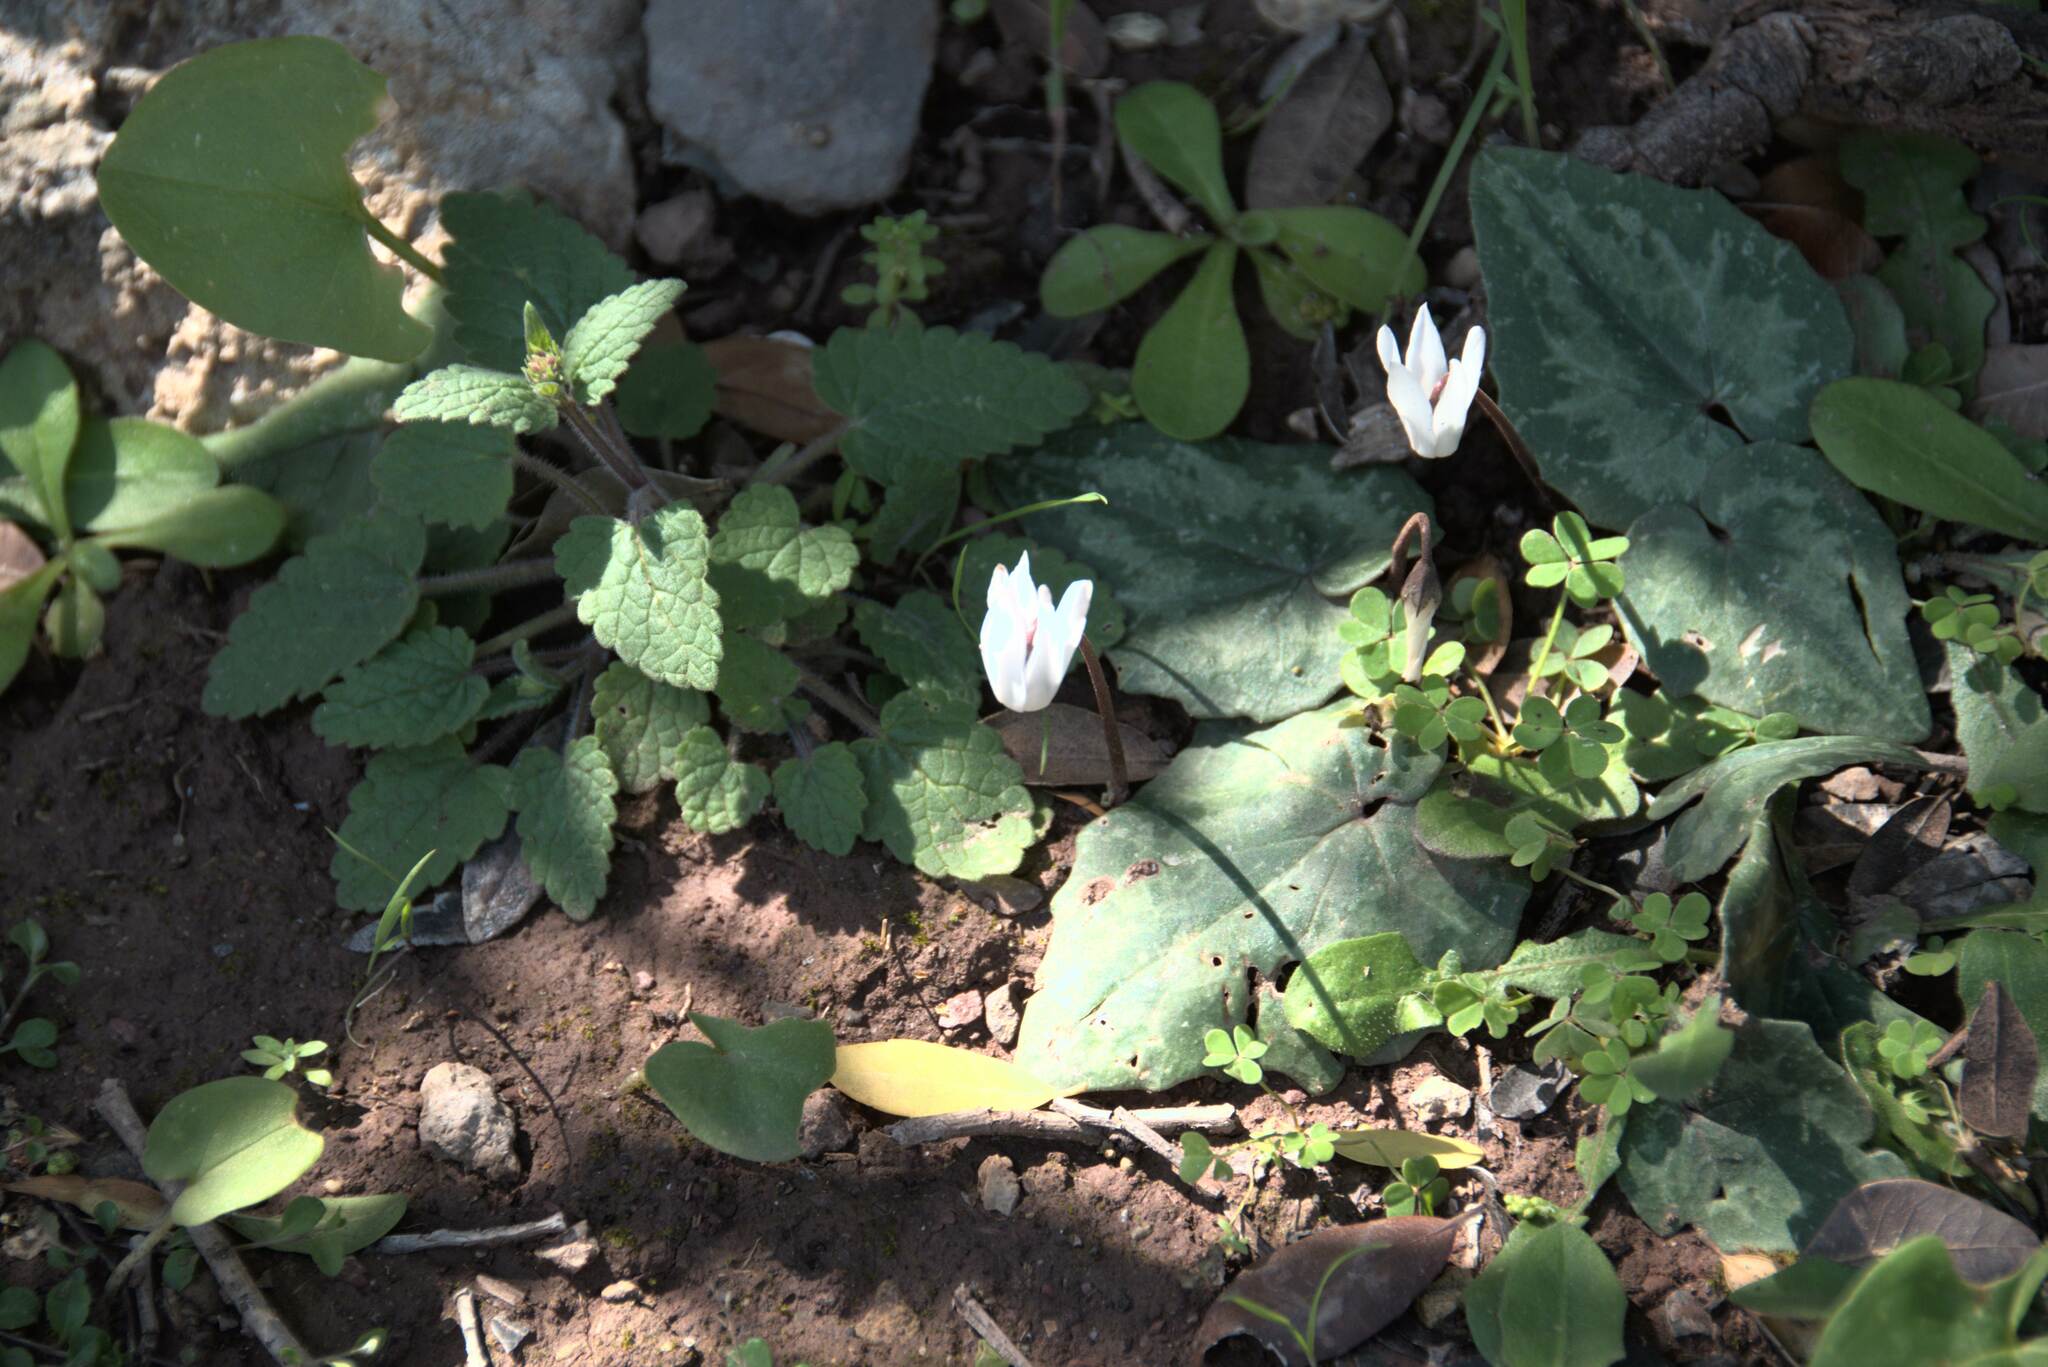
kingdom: Plantae
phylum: Tracheophyta
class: Magnoliopsida
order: Ericales
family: Primulaceae
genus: Cyclamen
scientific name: Cyclamen creticum
